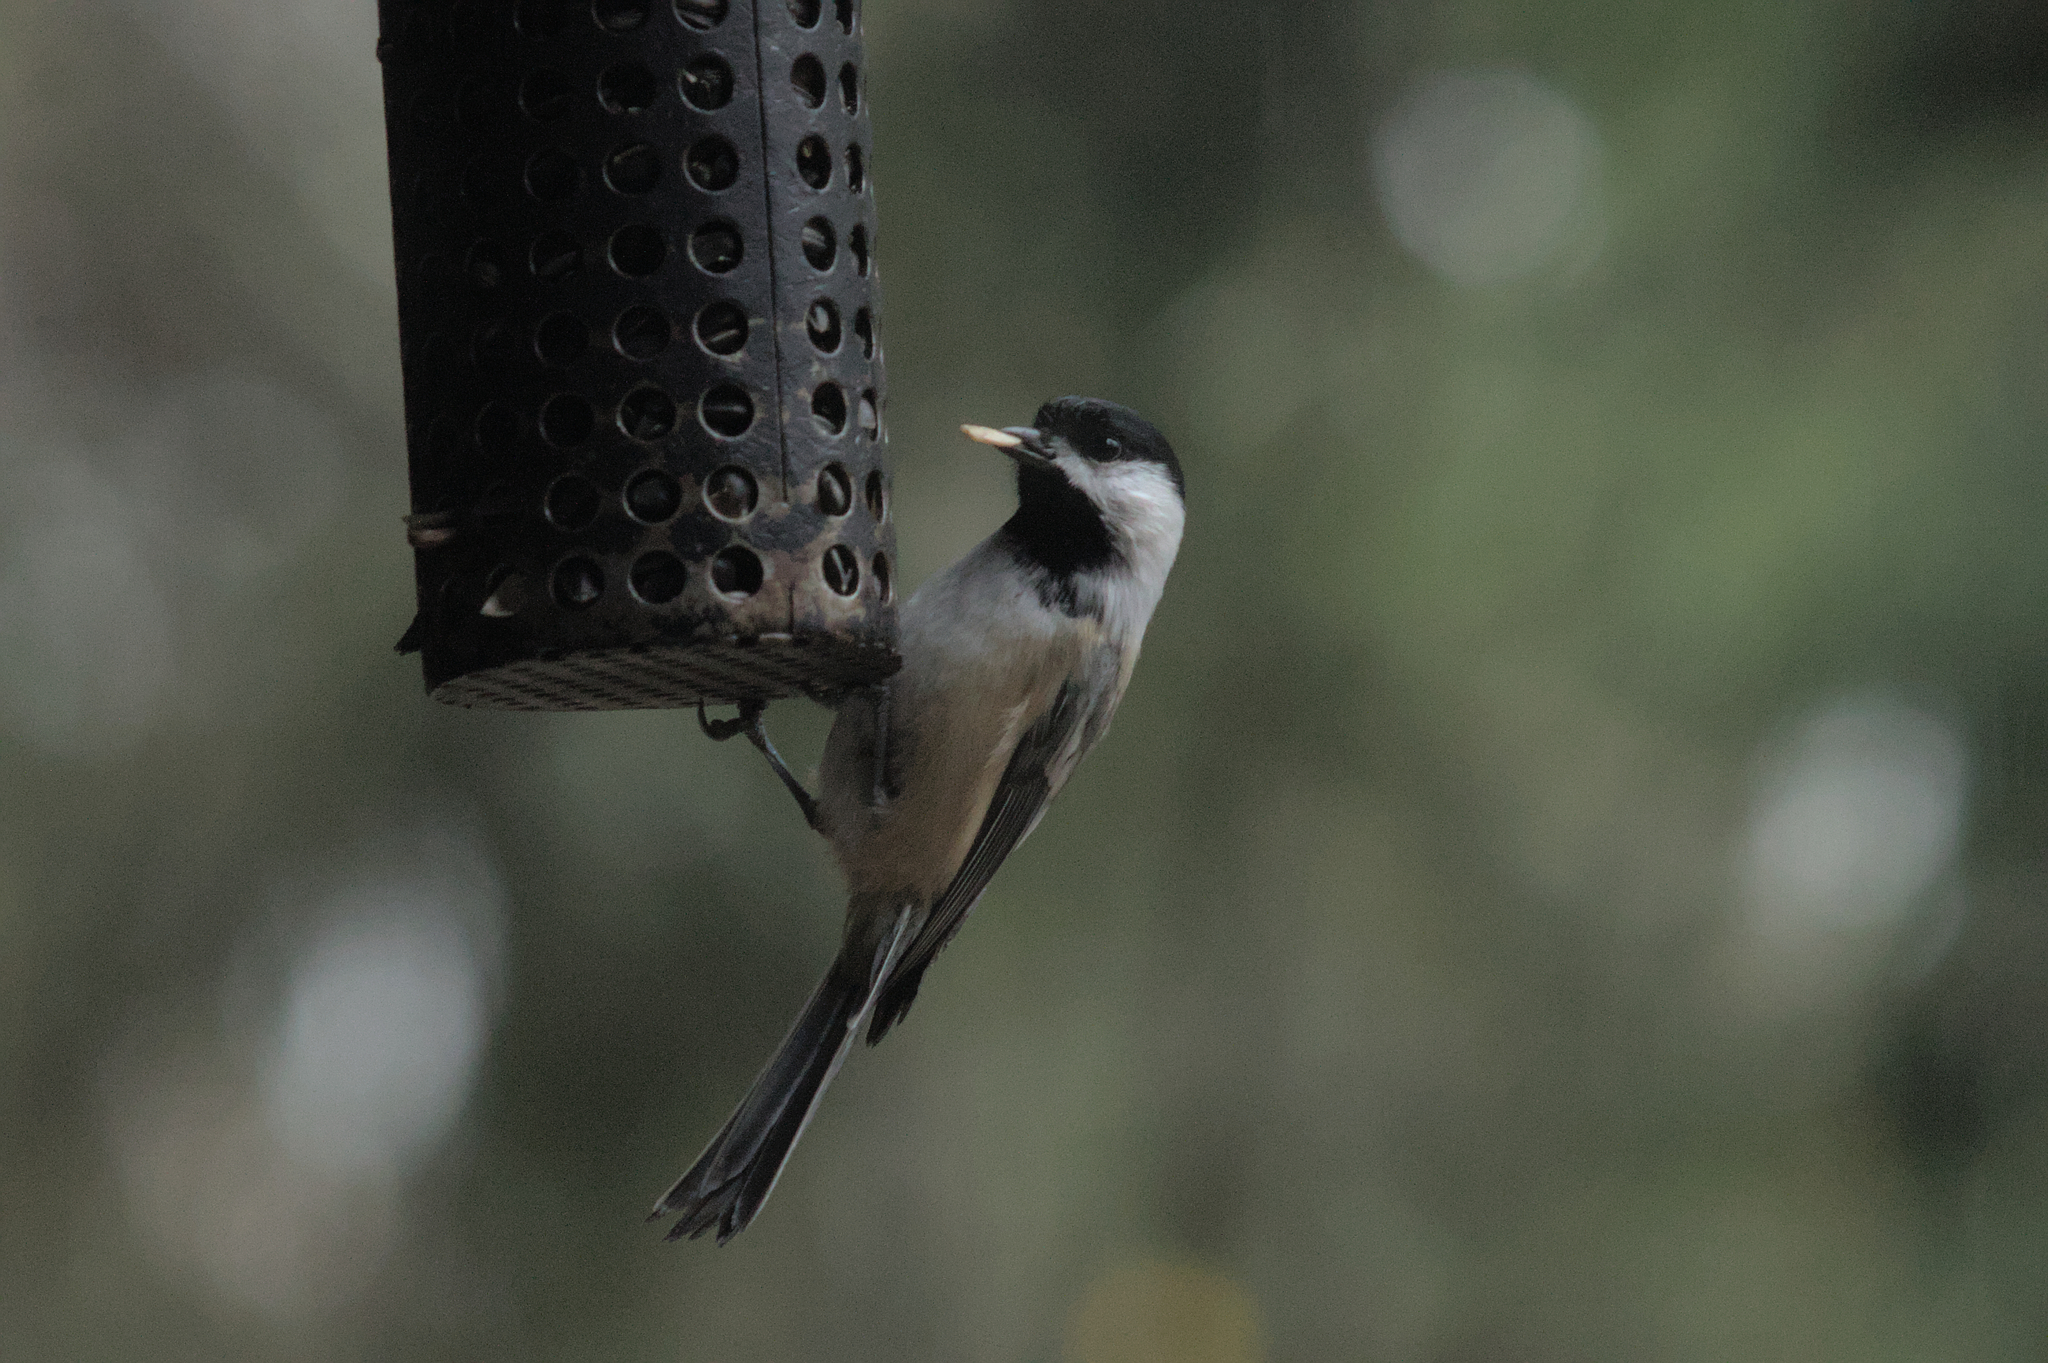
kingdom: Animalia
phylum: Chordata
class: Aves
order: Passeriformes
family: Paridae
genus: Poecile
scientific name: Poecile atricapillus
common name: Black-capped chickadee
